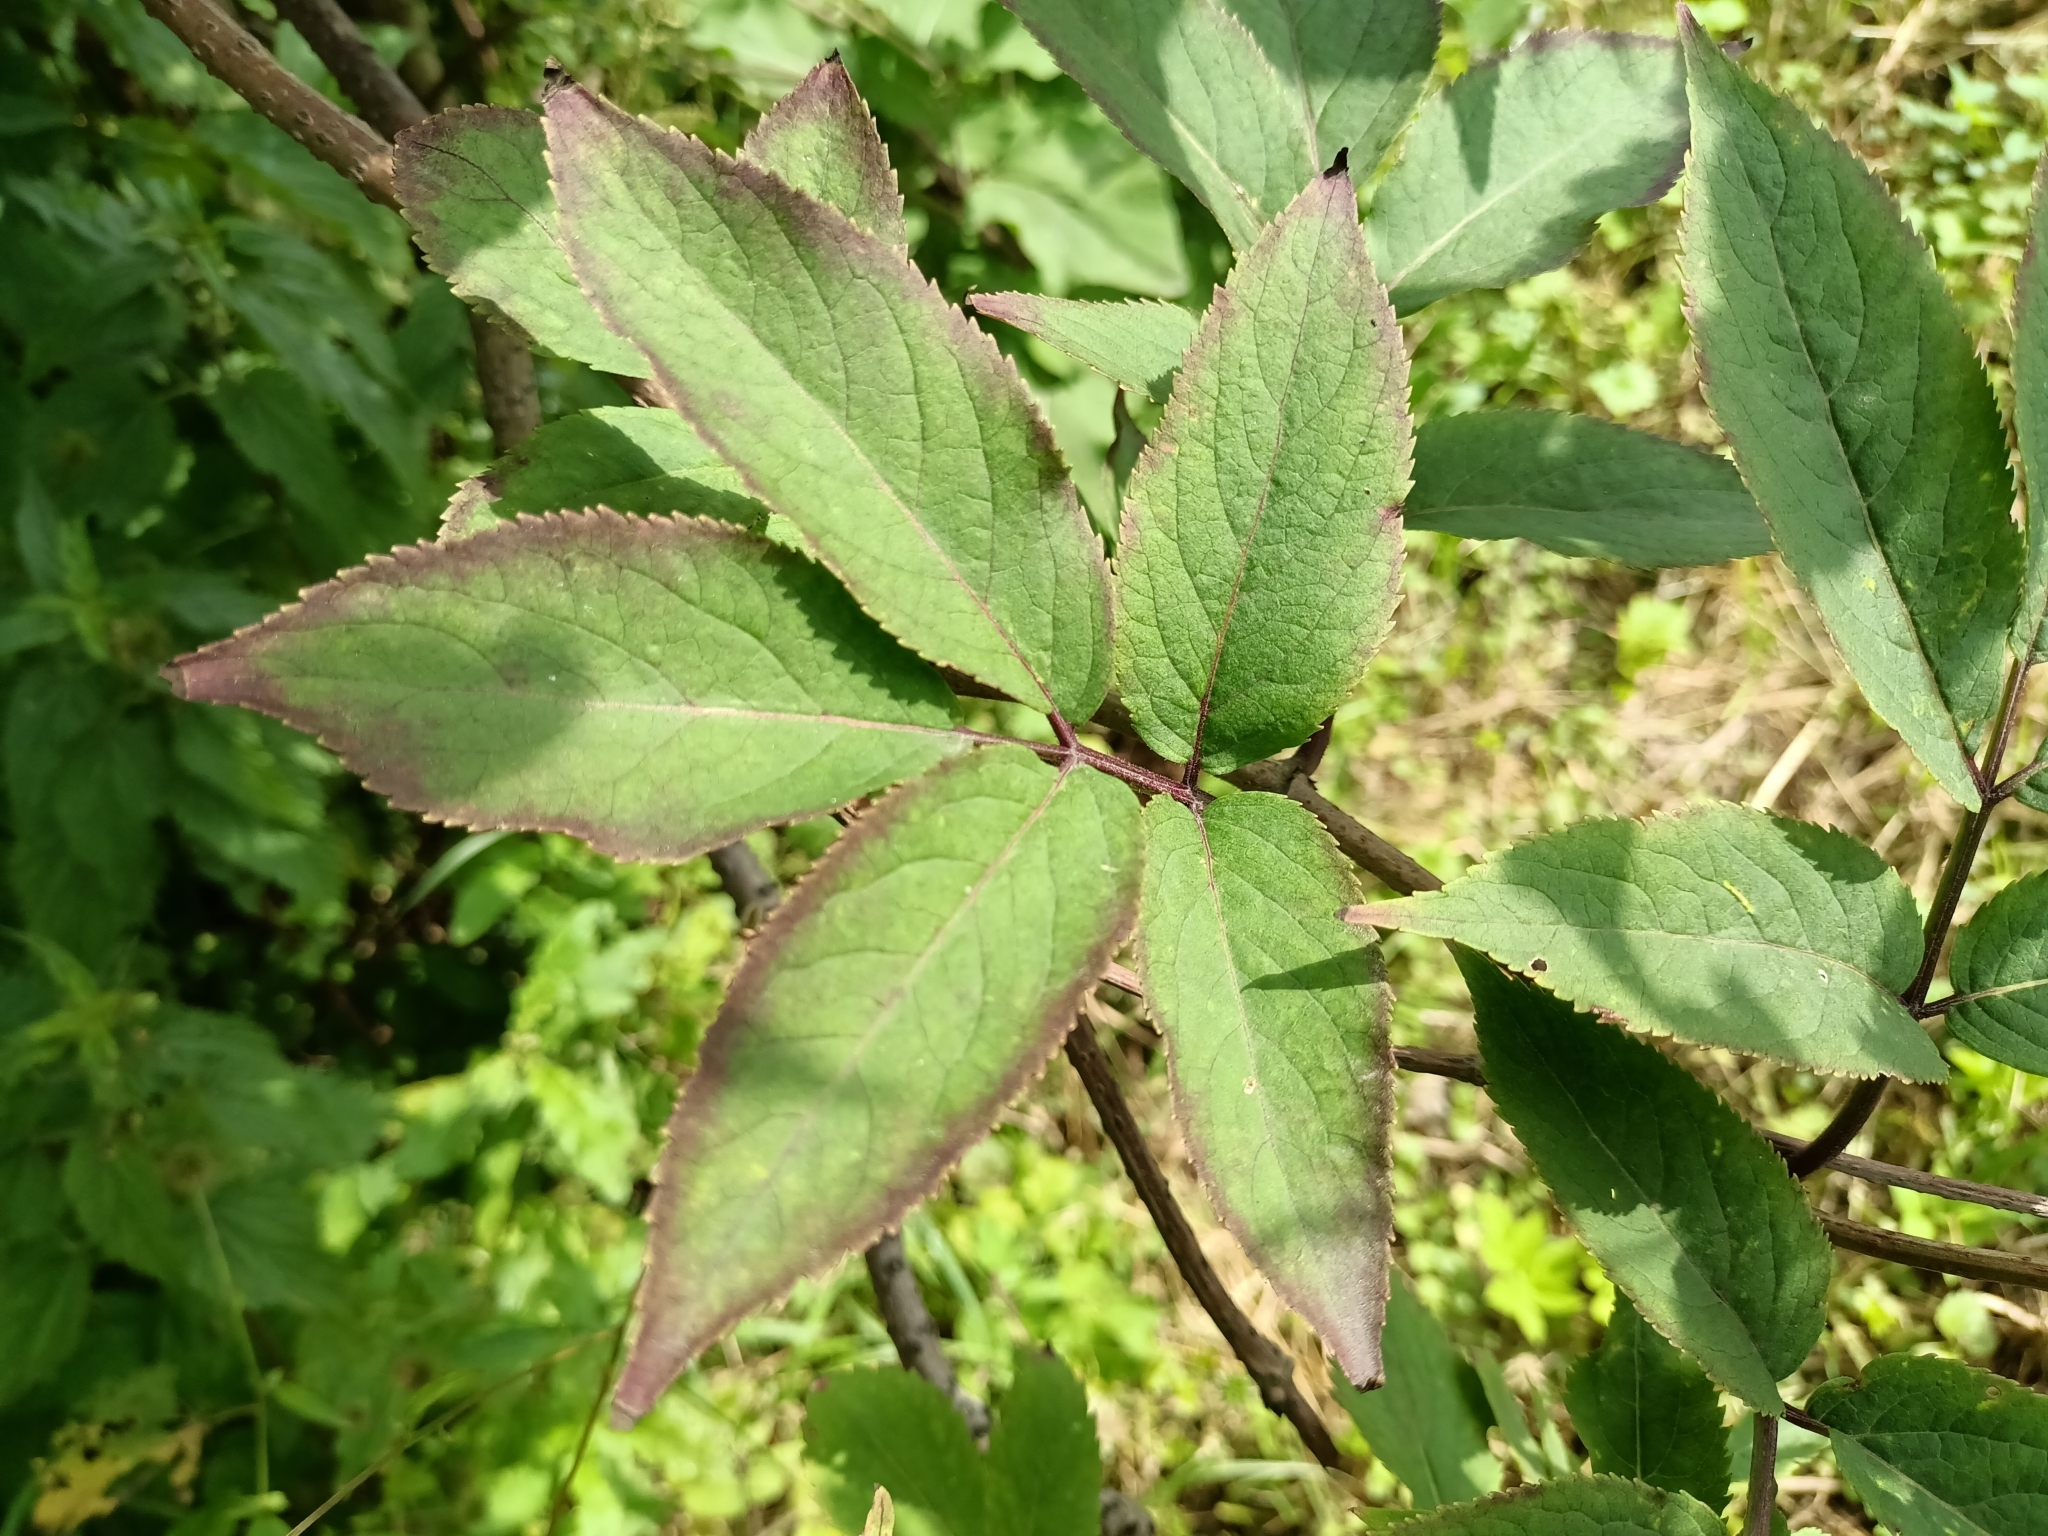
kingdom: Plantae
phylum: Tracheophyta
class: Magnoliopsida
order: Dipsacales
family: Viburnaceae
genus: Sambucus
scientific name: Sambucus racemosa
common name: Red-berried elder
